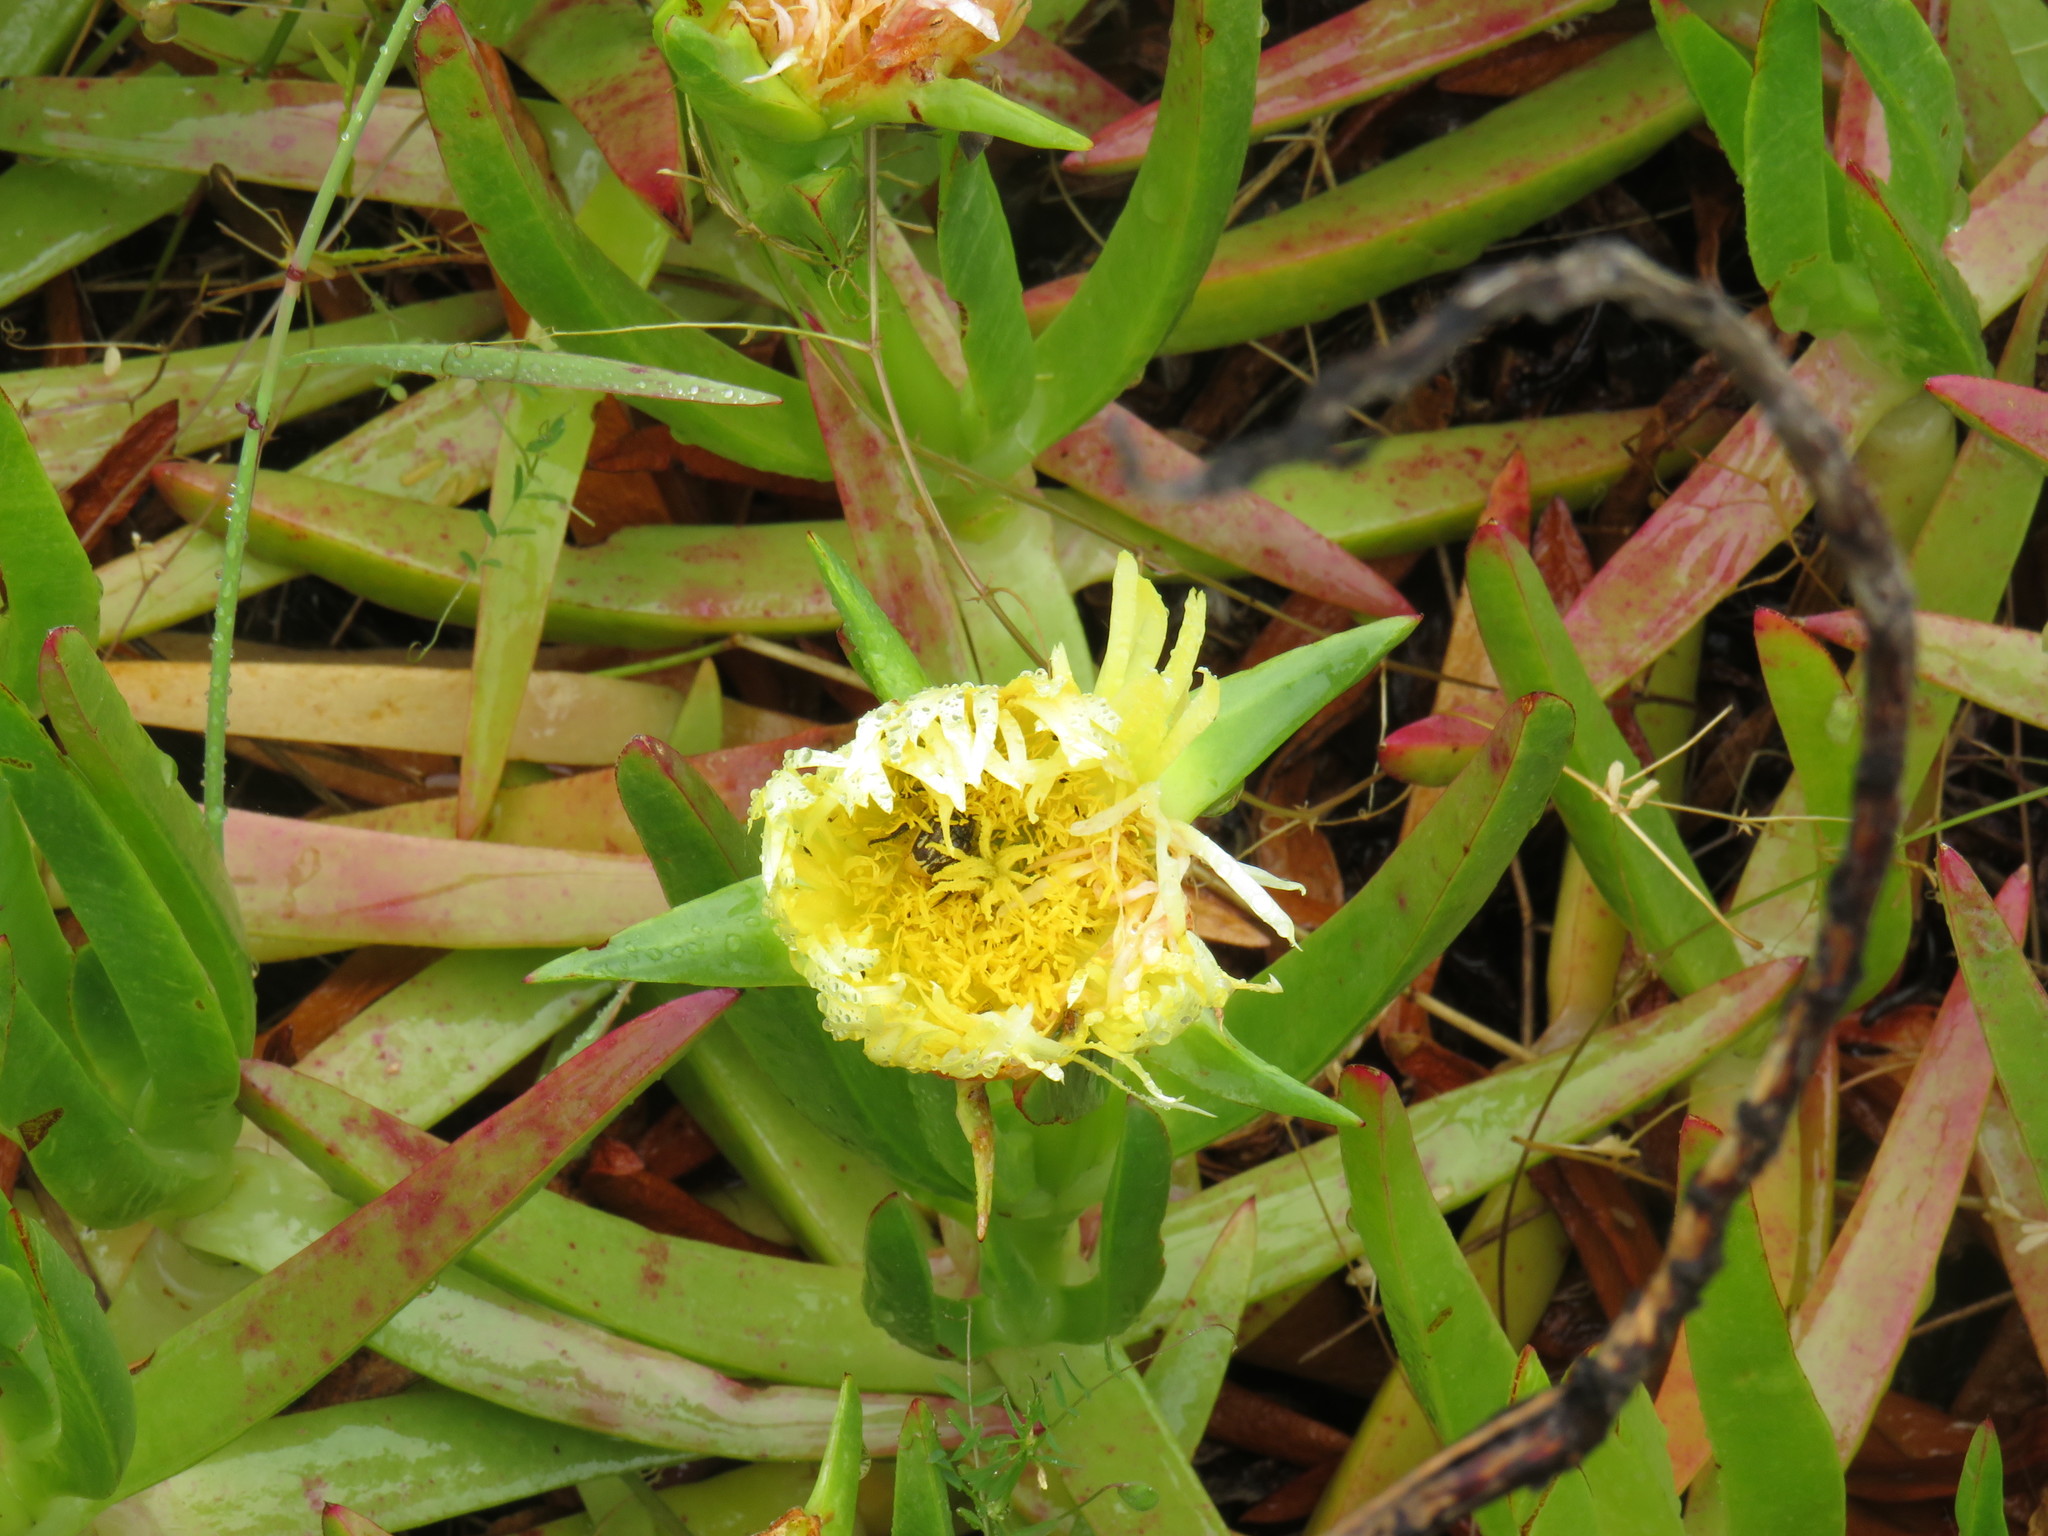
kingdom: Plantae
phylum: Tracheophyta
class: Magnoliopsida
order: Caryophyllales
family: Aizoaceae
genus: Carpobrotus
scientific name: Carpobrotus edulis
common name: Hottentot-fig
